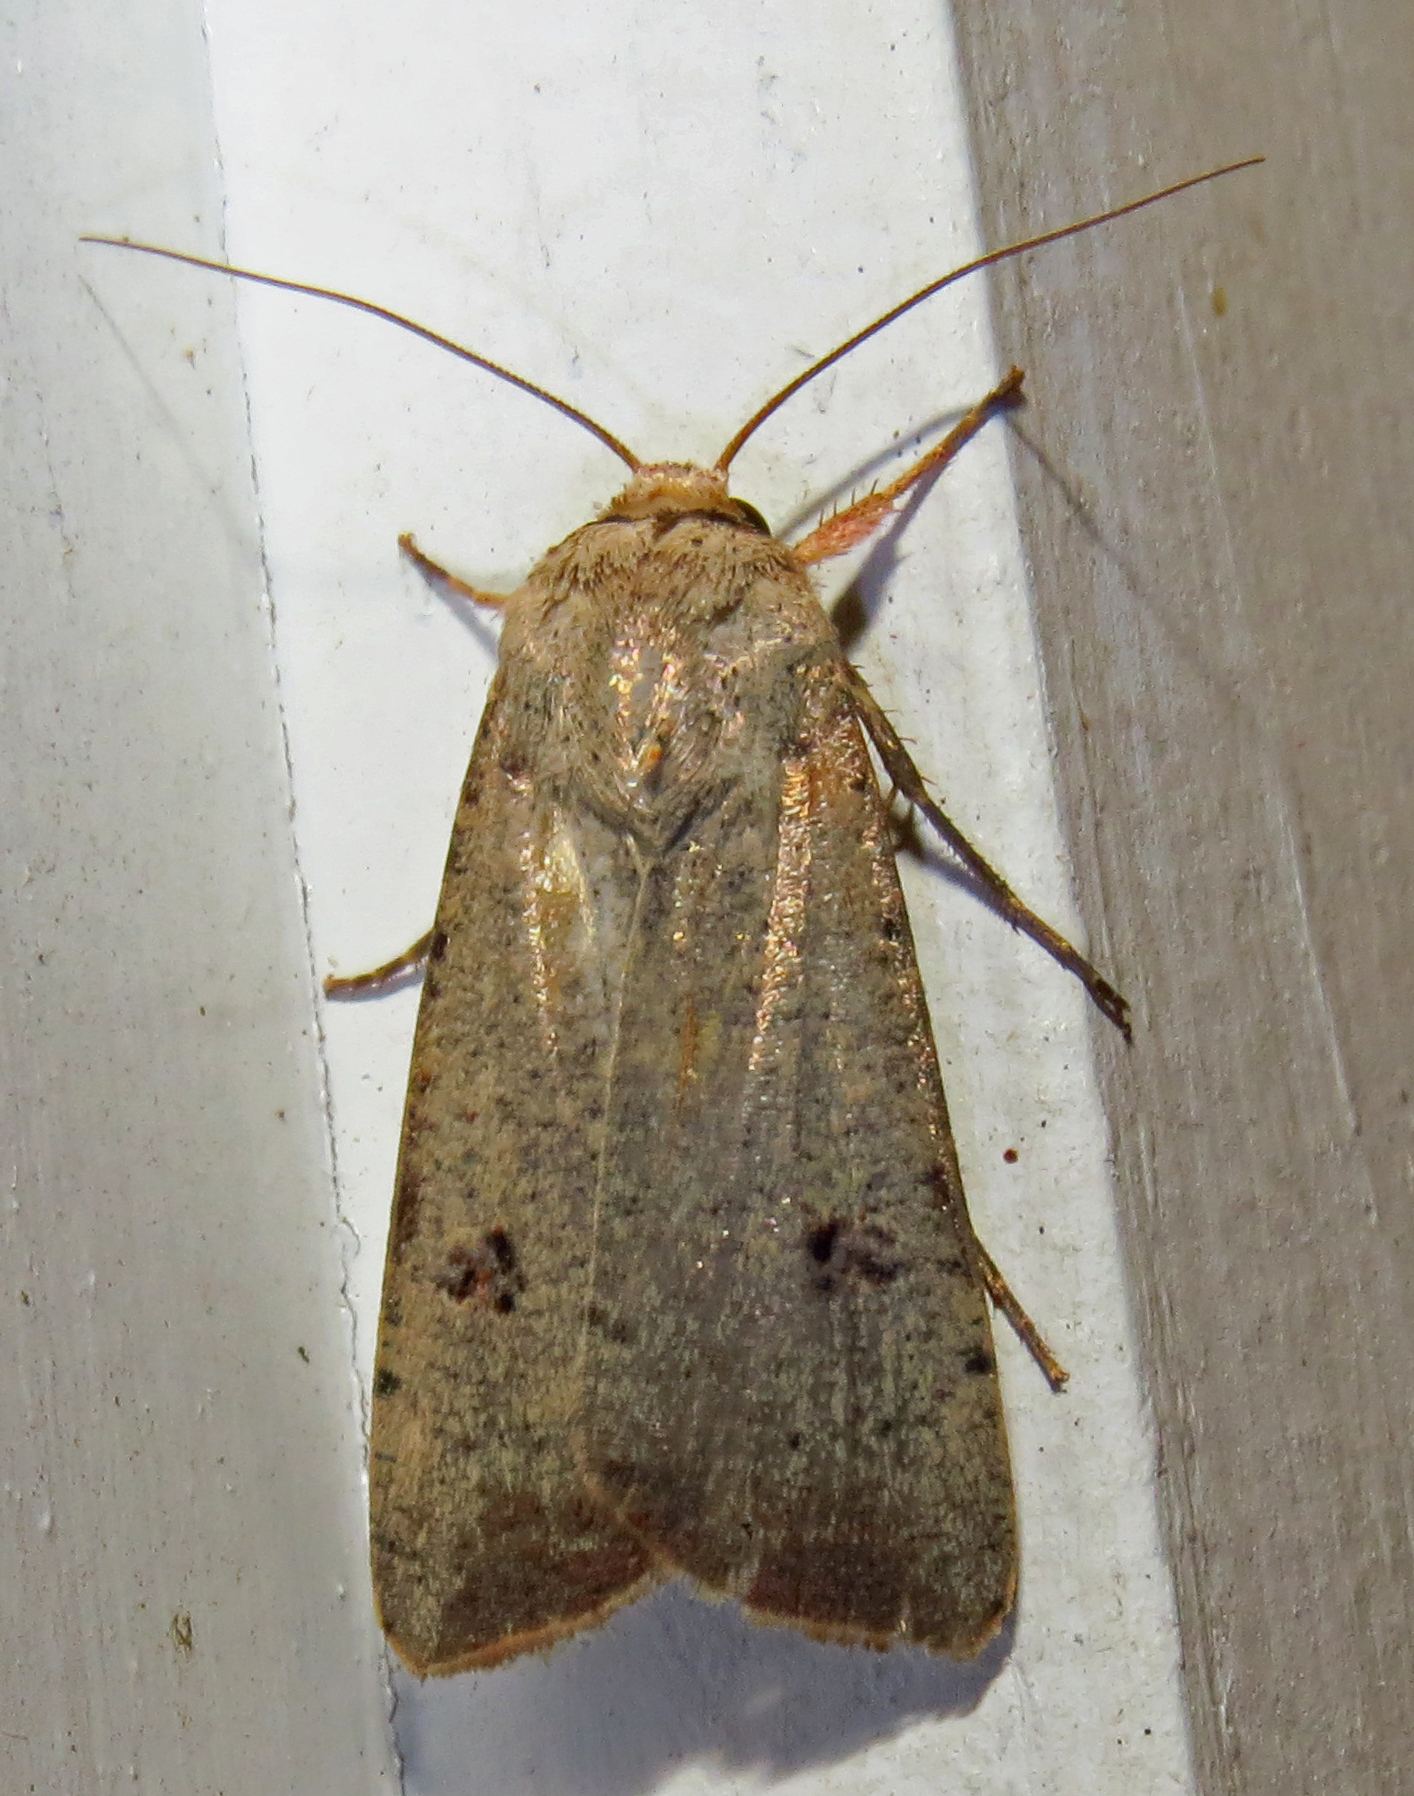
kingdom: Animalia
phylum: Arthropoda
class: Insecta
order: Lepidoptera
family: Noctuidae
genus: Anicla
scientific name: Anicla infecta
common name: Green cutworm
